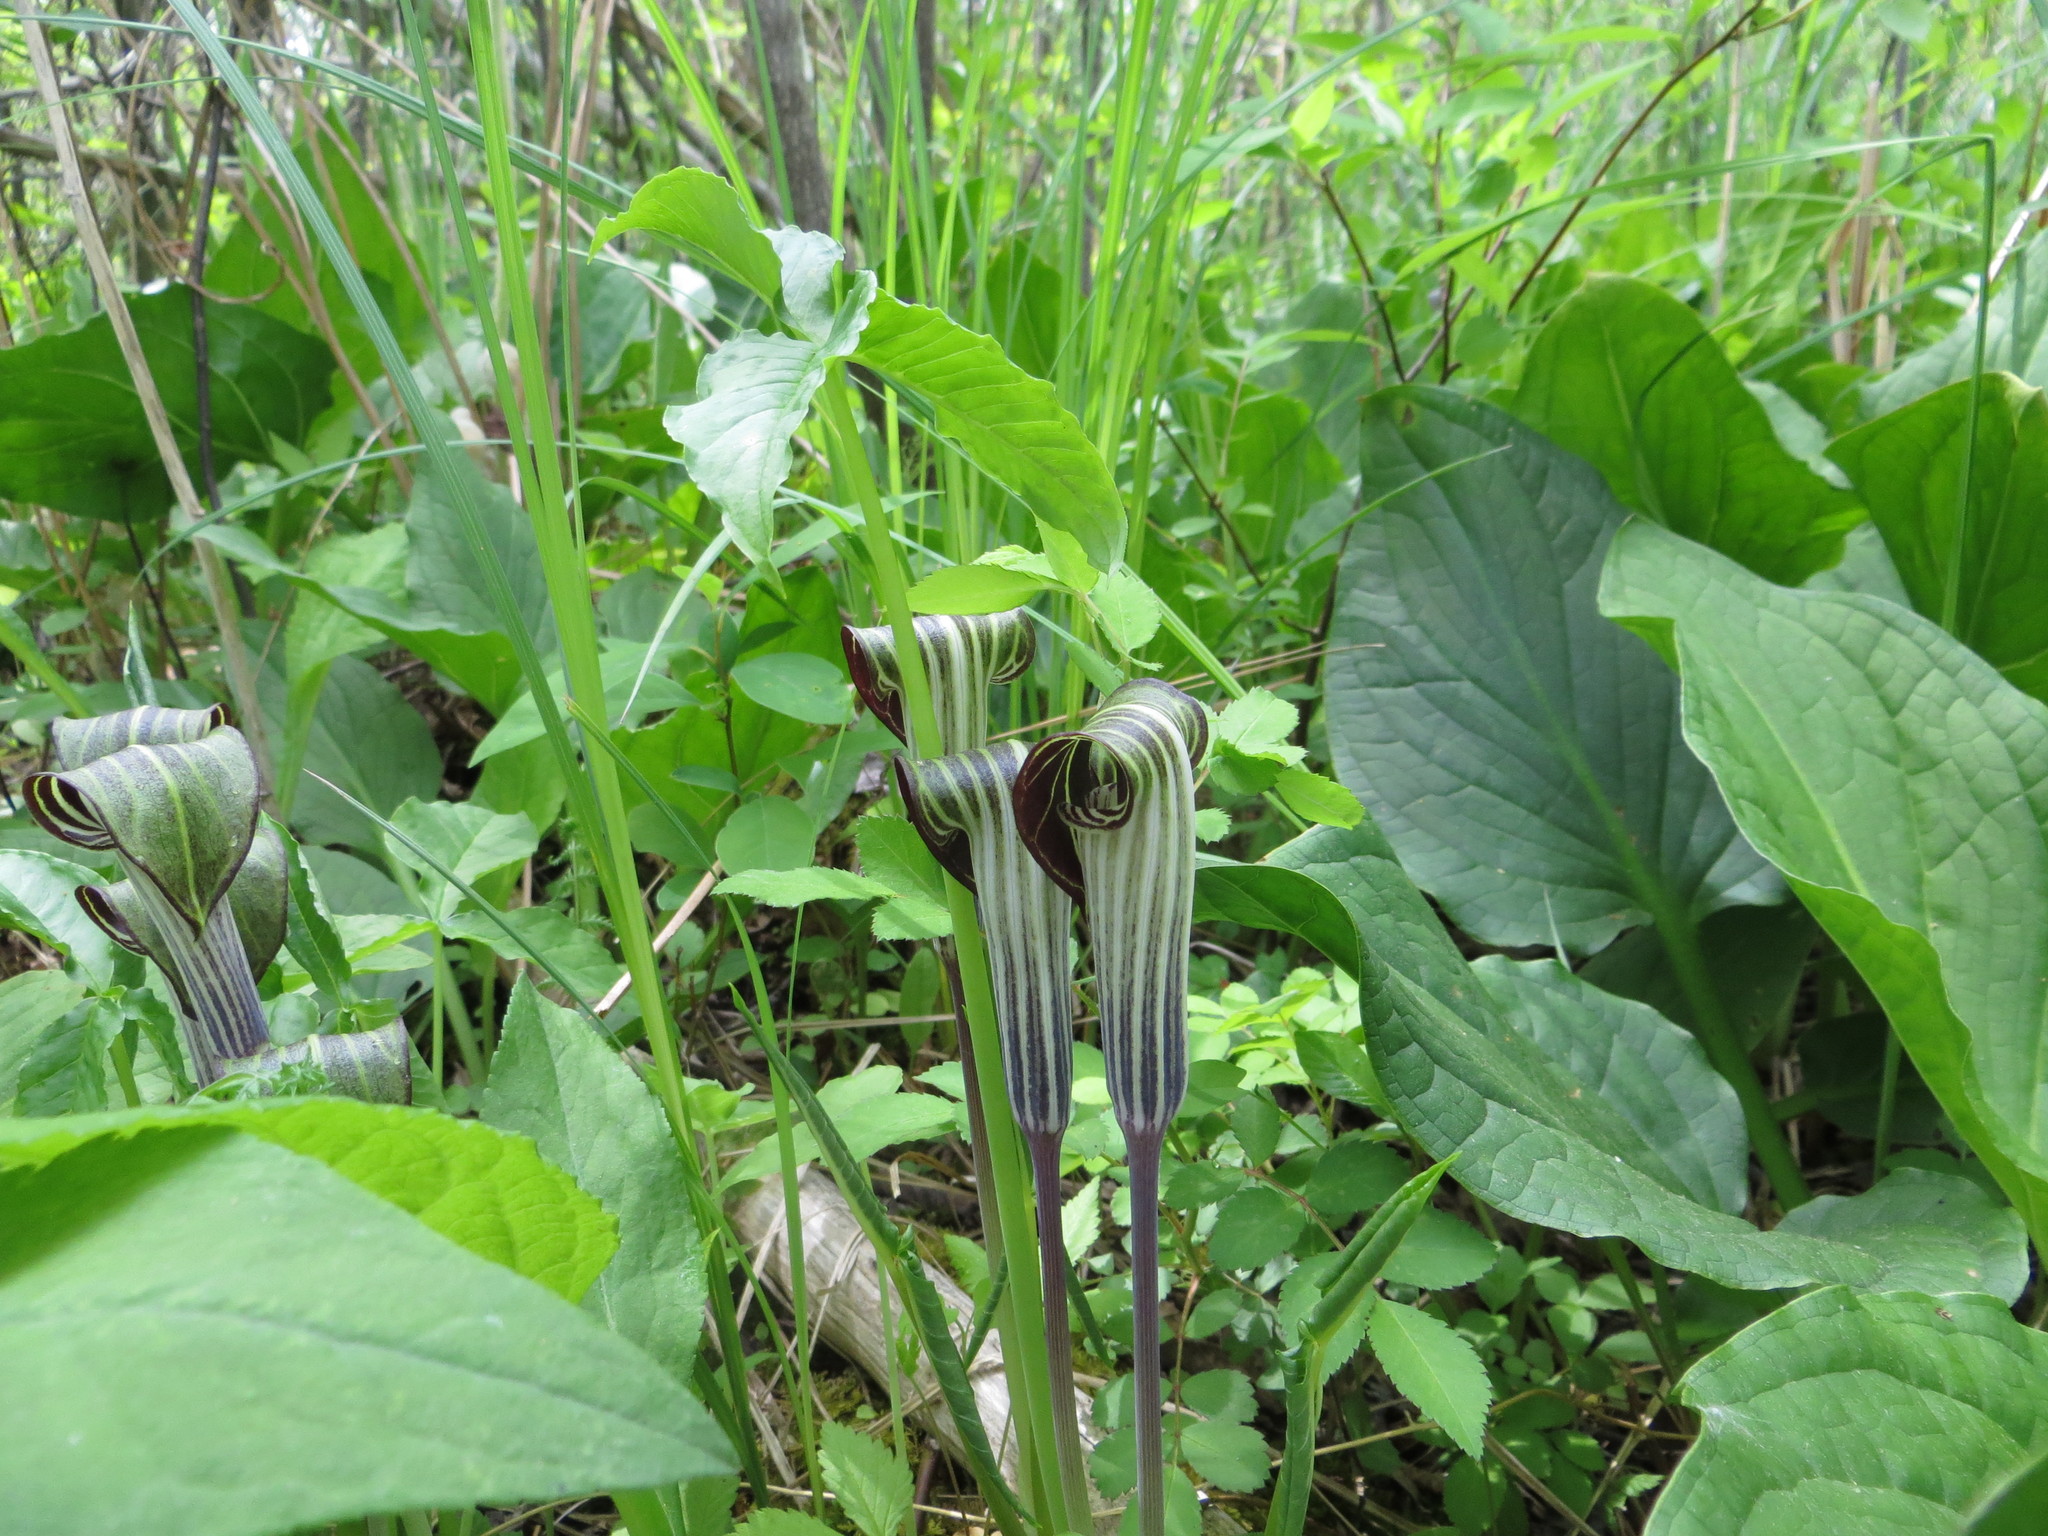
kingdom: Plantae
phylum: Tracheophyta
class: Liliopsida
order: Alismatales
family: Araceae
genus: Arisaema
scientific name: Arisaema stewardsonii
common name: Swamp jack-in-the-pulpit
